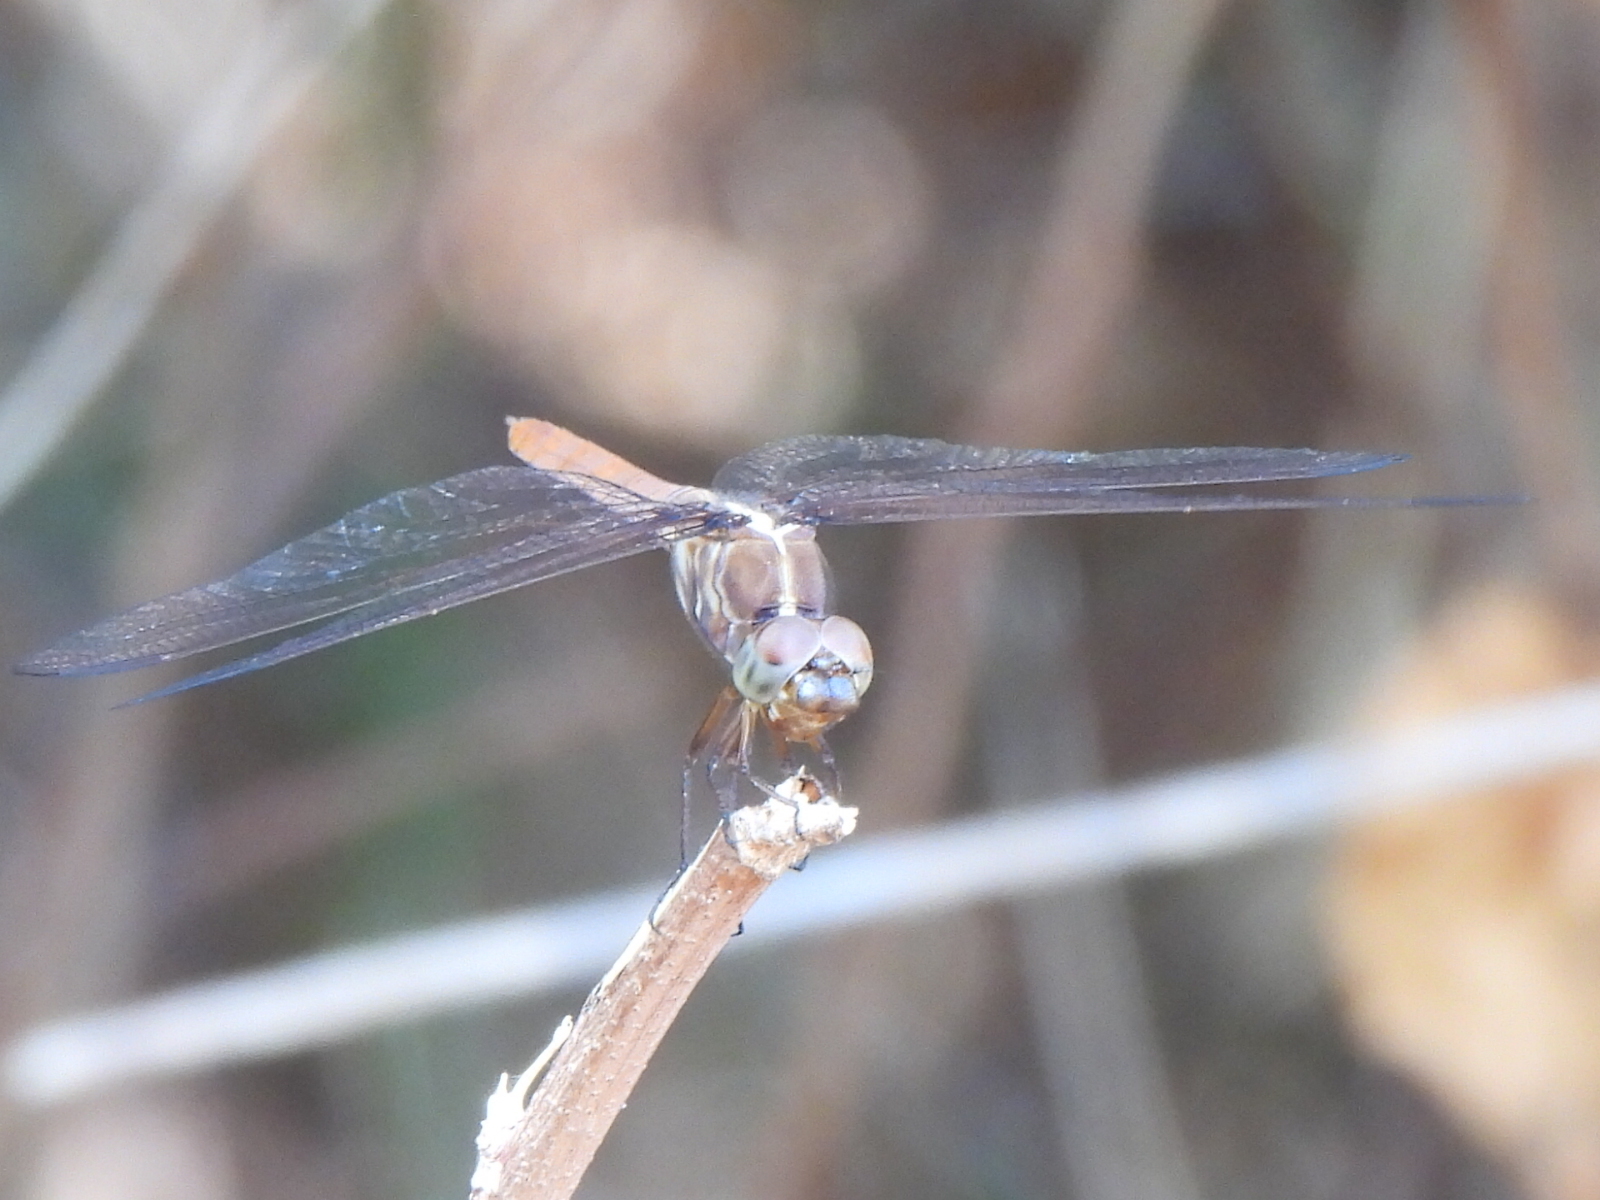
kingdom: Animalia
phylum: Arthropoda
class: Insecta
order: Odonata
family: Libellulidae
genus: Orthemis
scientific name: Orthemis ferruginea
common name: Roseate skimmer
